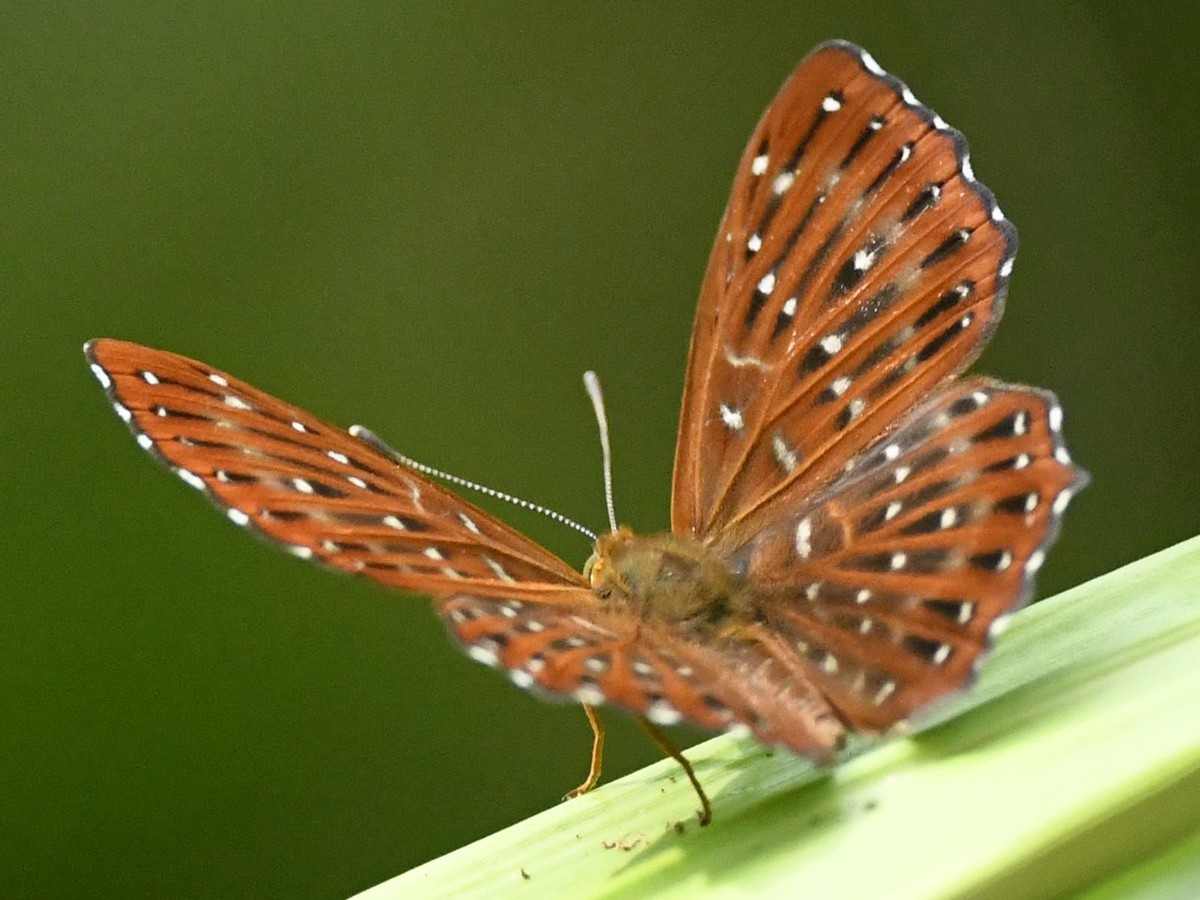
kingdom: Animalia
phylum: Arthropoda
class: Insecta
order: Lepidoptera
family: Riodinidae
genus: Zemeros
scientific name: Zemeros flegyas
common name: Punchinello
